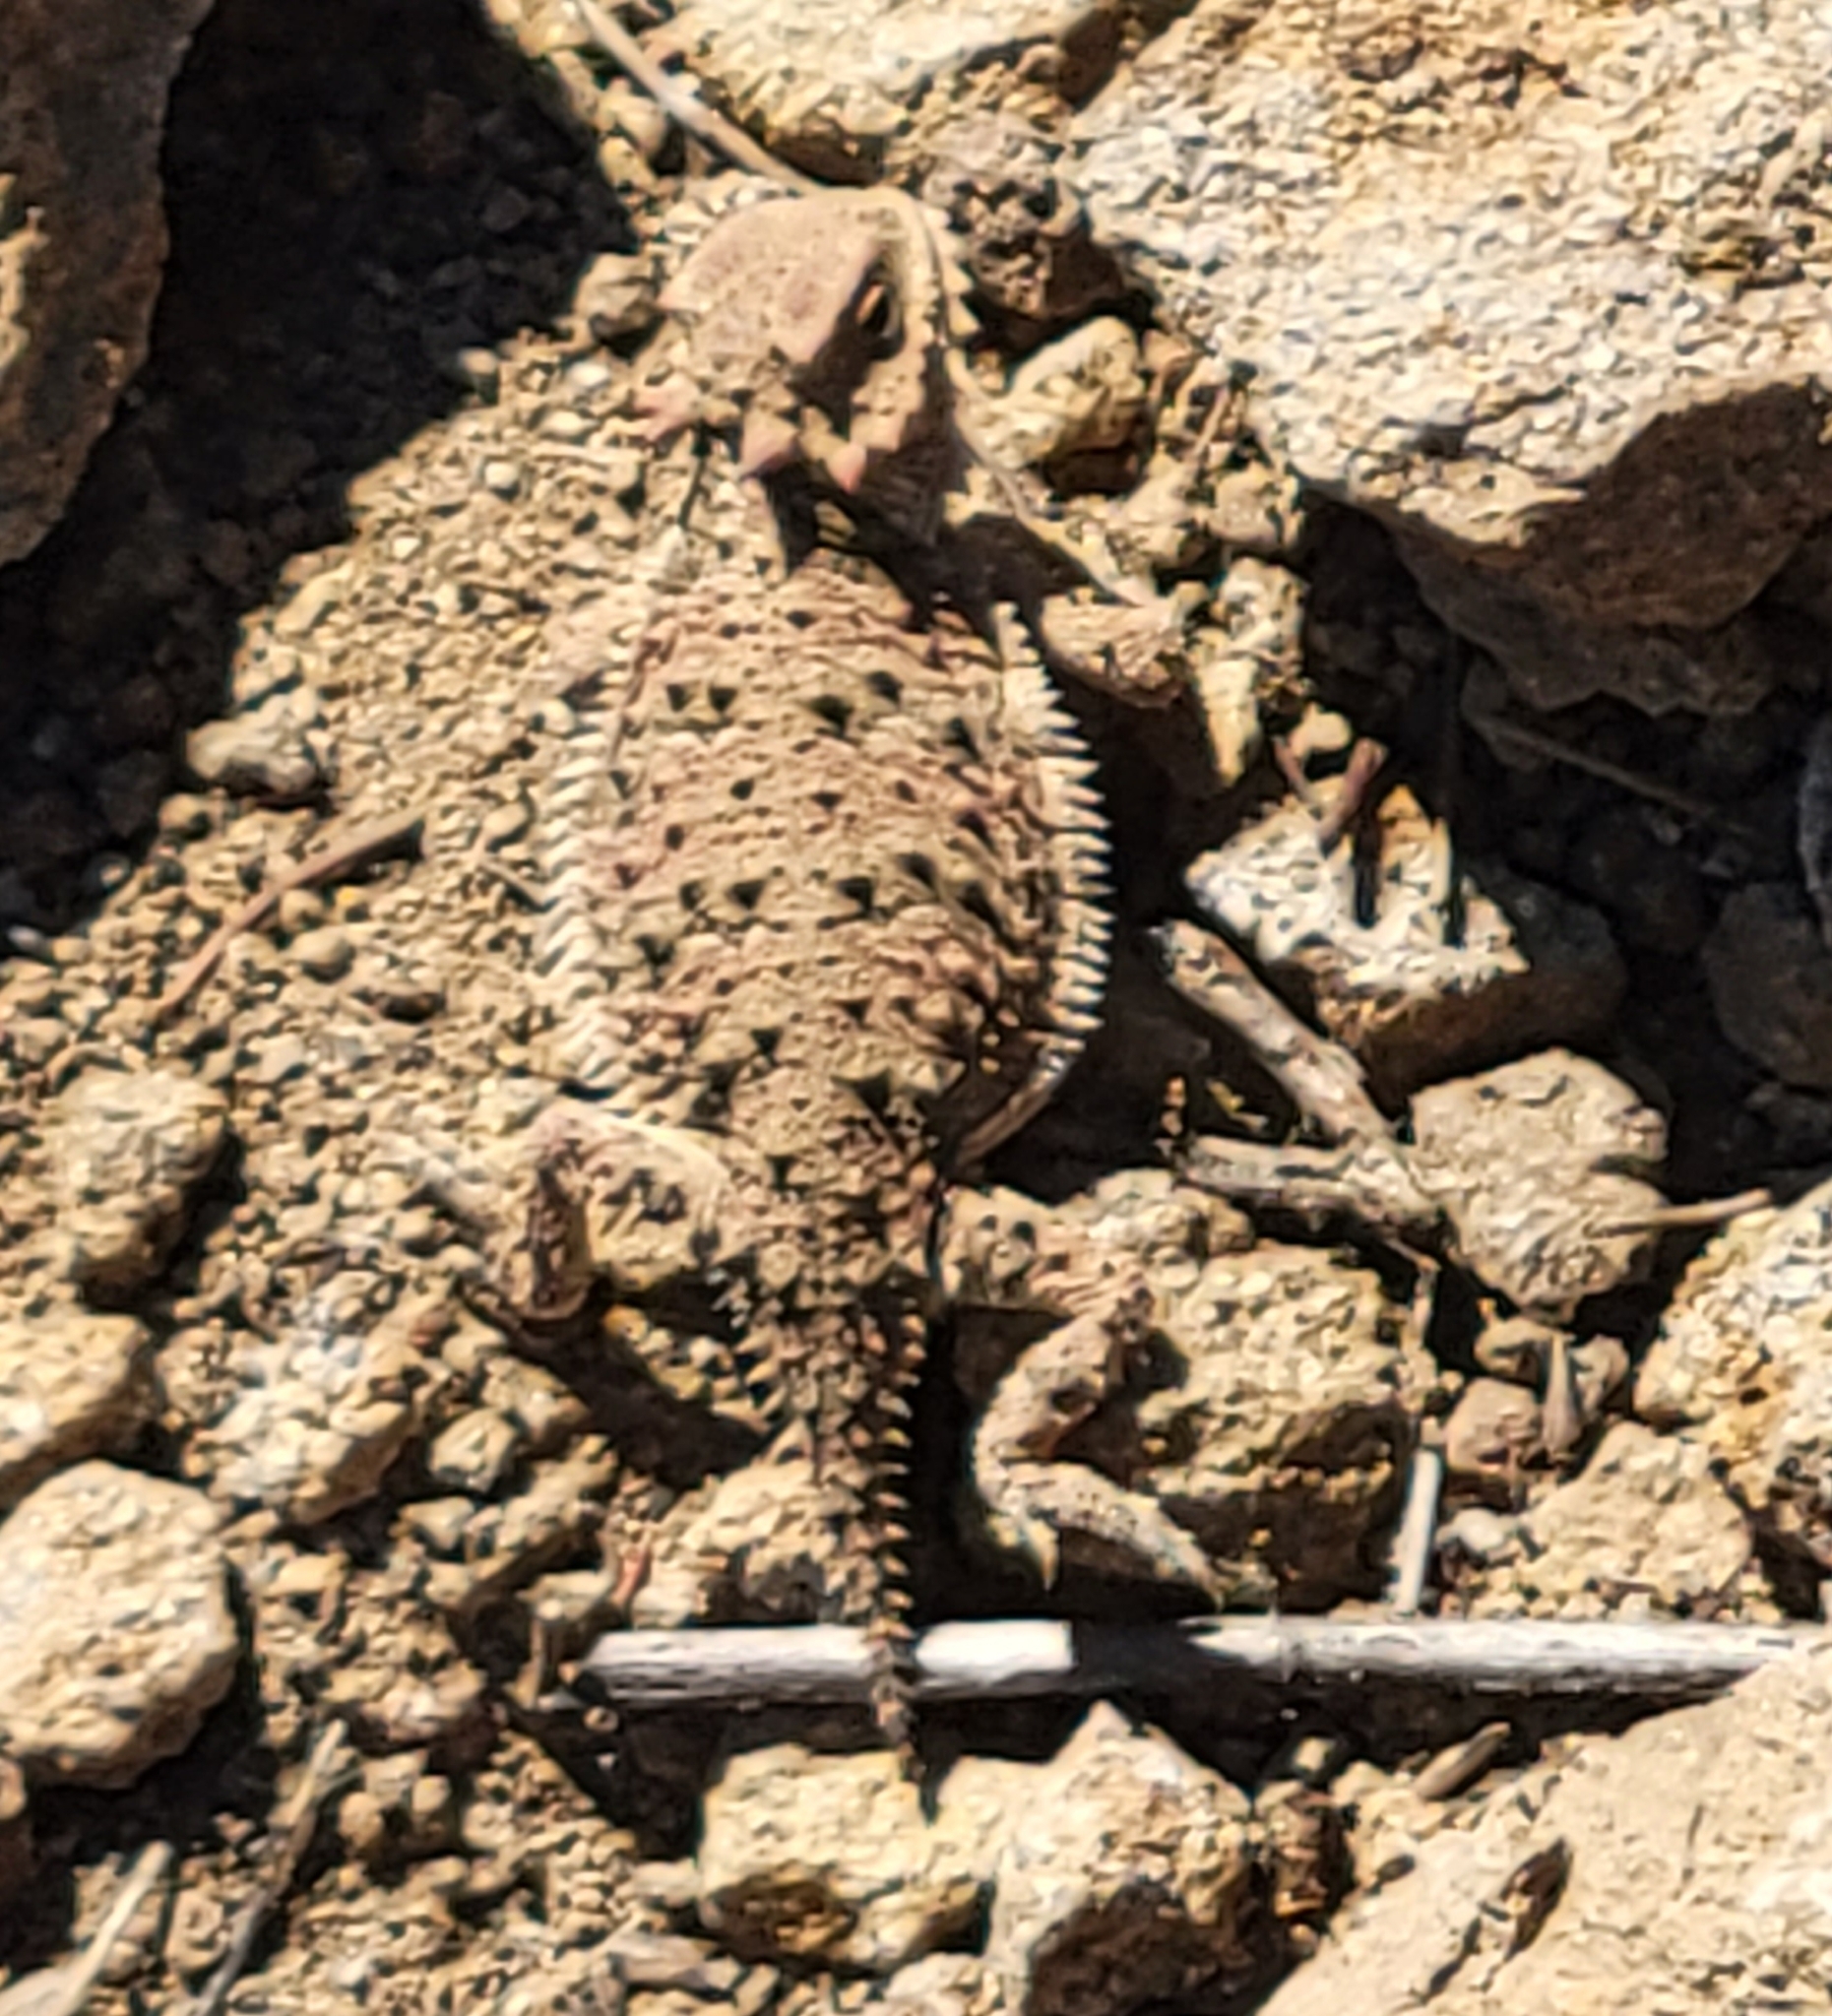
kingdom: Animalia
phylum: Chordata
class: Squamata
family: Phrynosomatidae
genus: Phrynosoma
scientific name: Phrynosoma blainvillii
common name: San diego horned lizard
